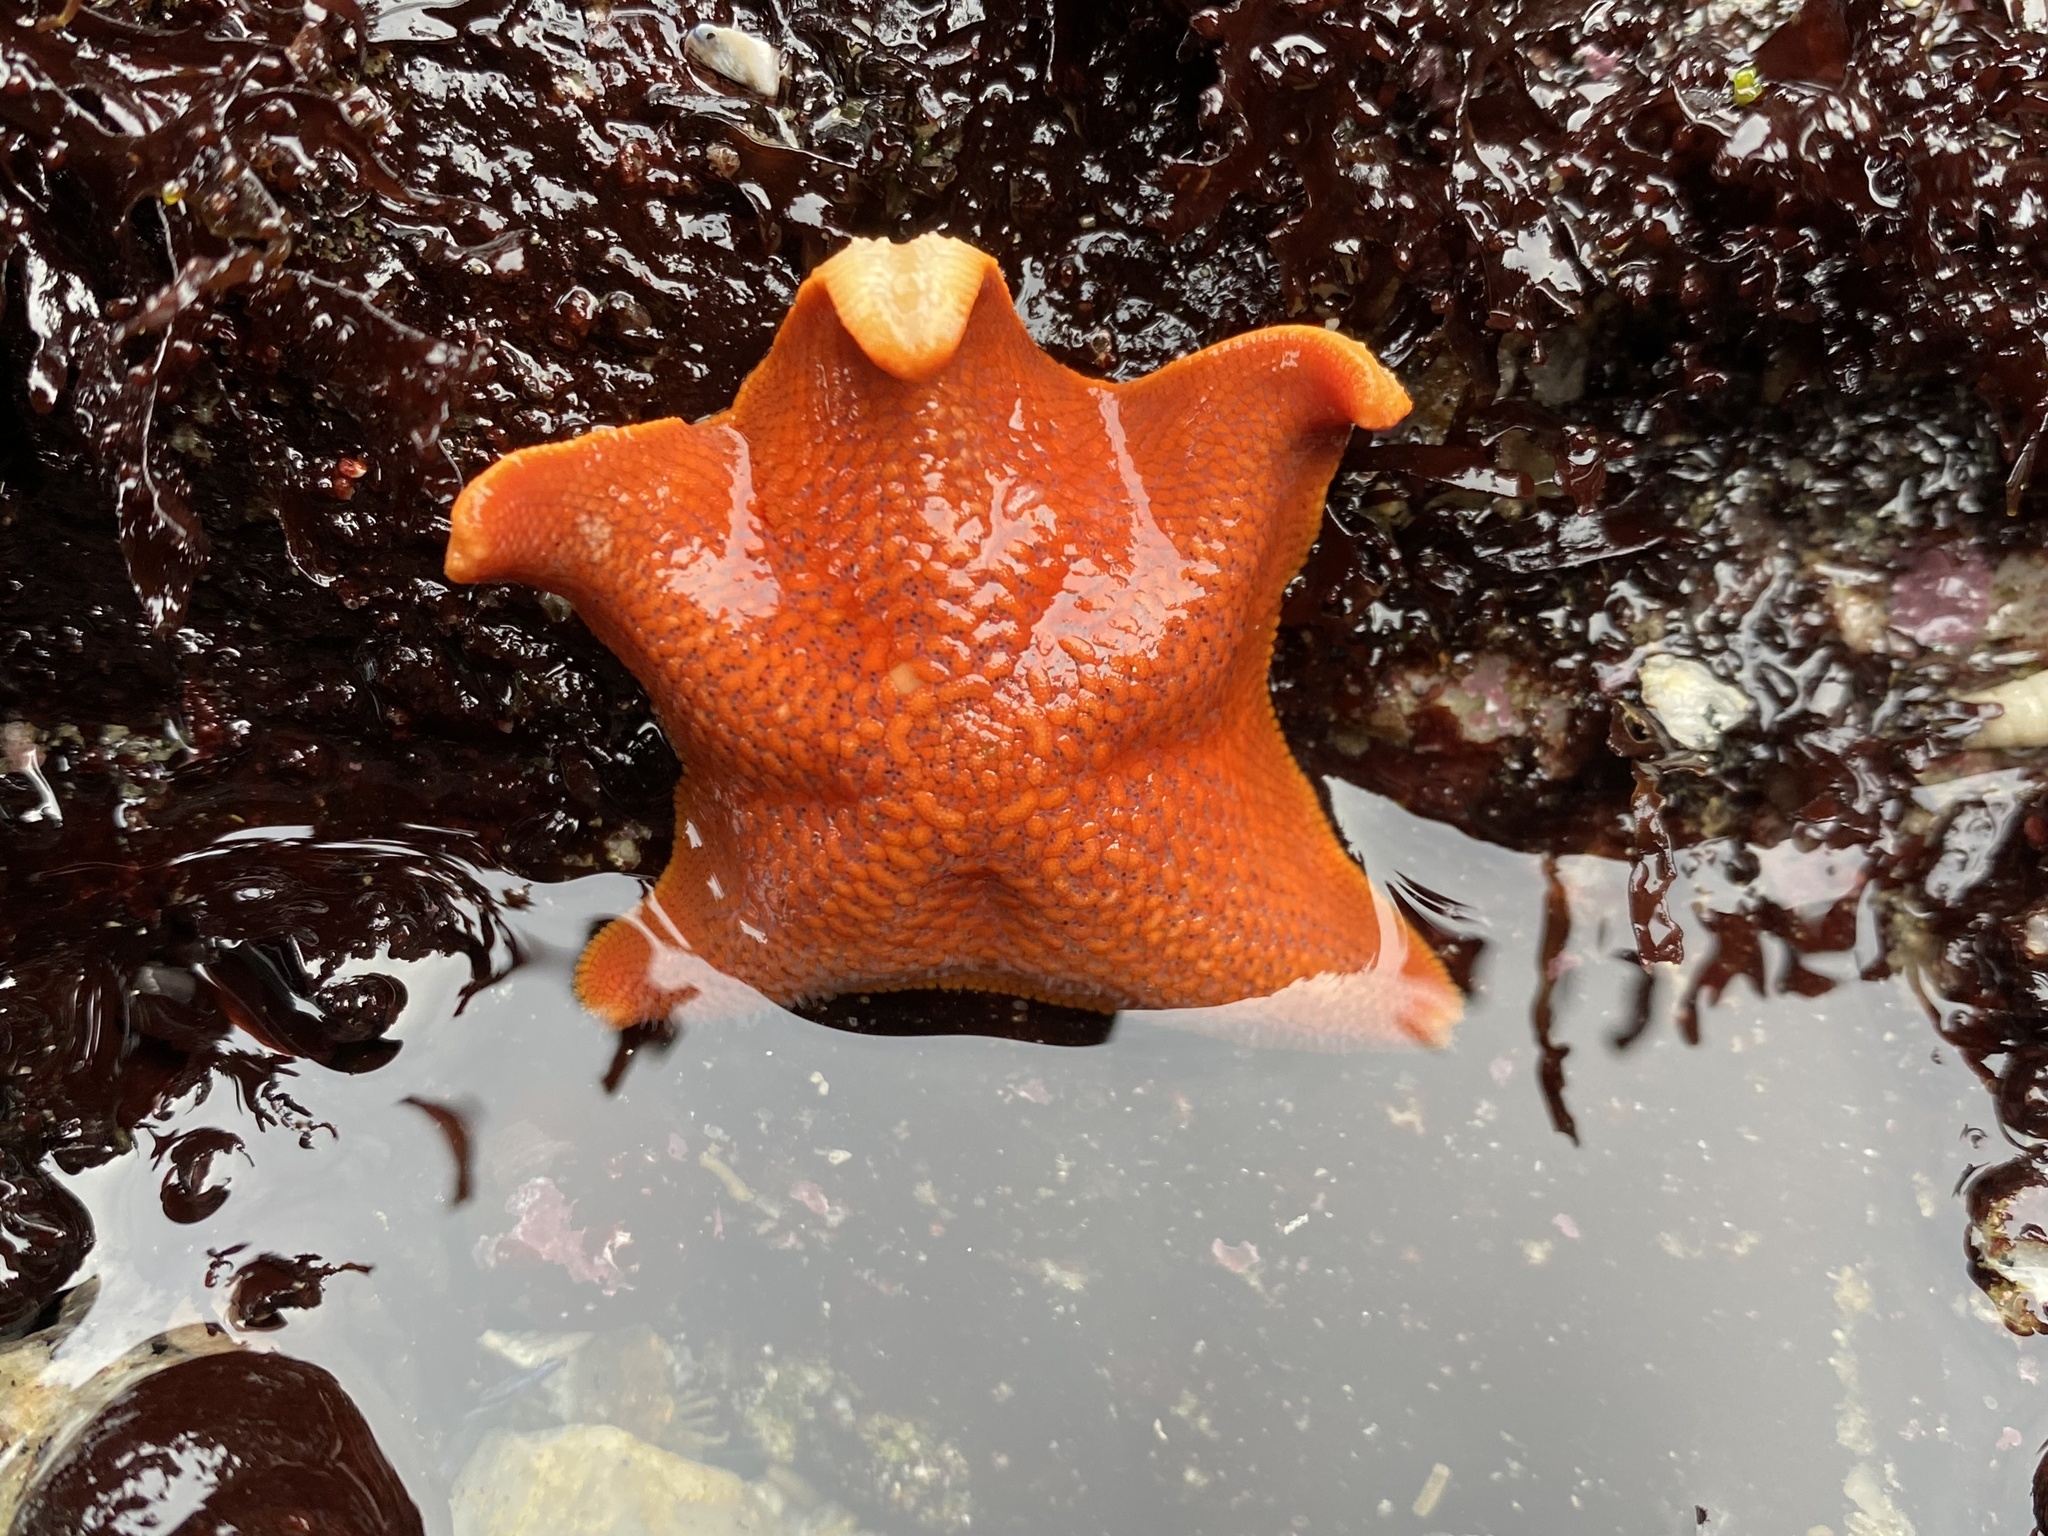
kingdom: Animalia
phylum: Echinodermata
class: Asteroidea
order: Valvatida
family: Asterinidae
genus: Patiria
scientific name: Patiria miniata
